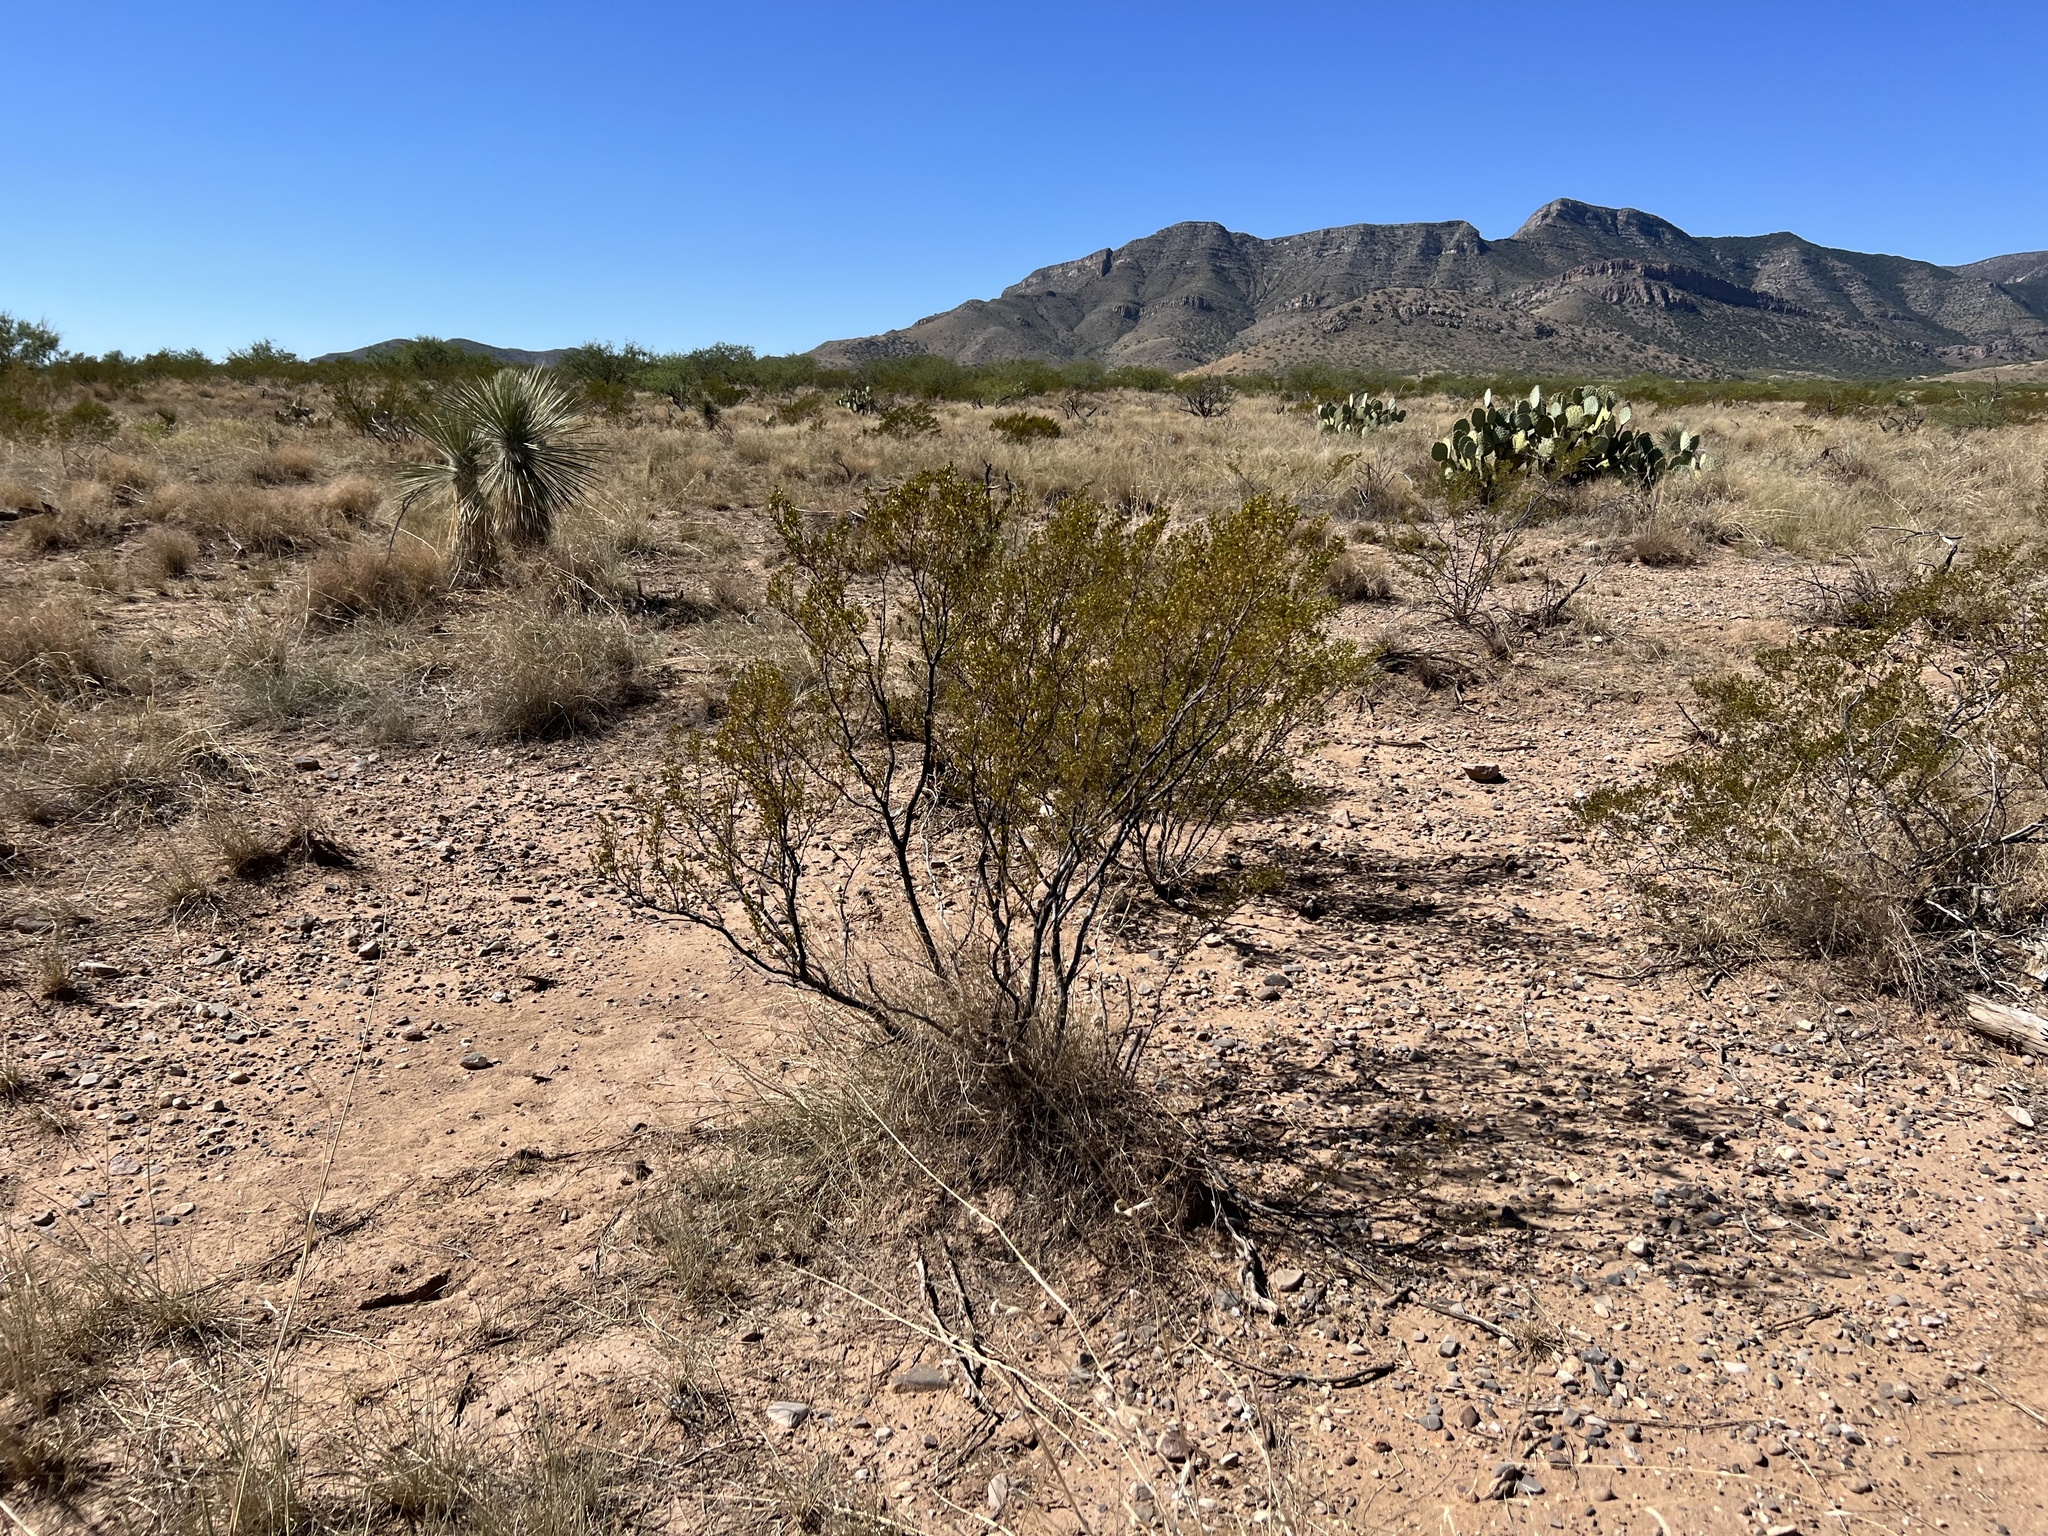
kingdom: Plantae
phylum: Tracheophyta
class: Magnoliopsida
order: Zygophyllales
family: Zygophyllaceae
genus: Larrea
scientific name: Larrea tridentata
